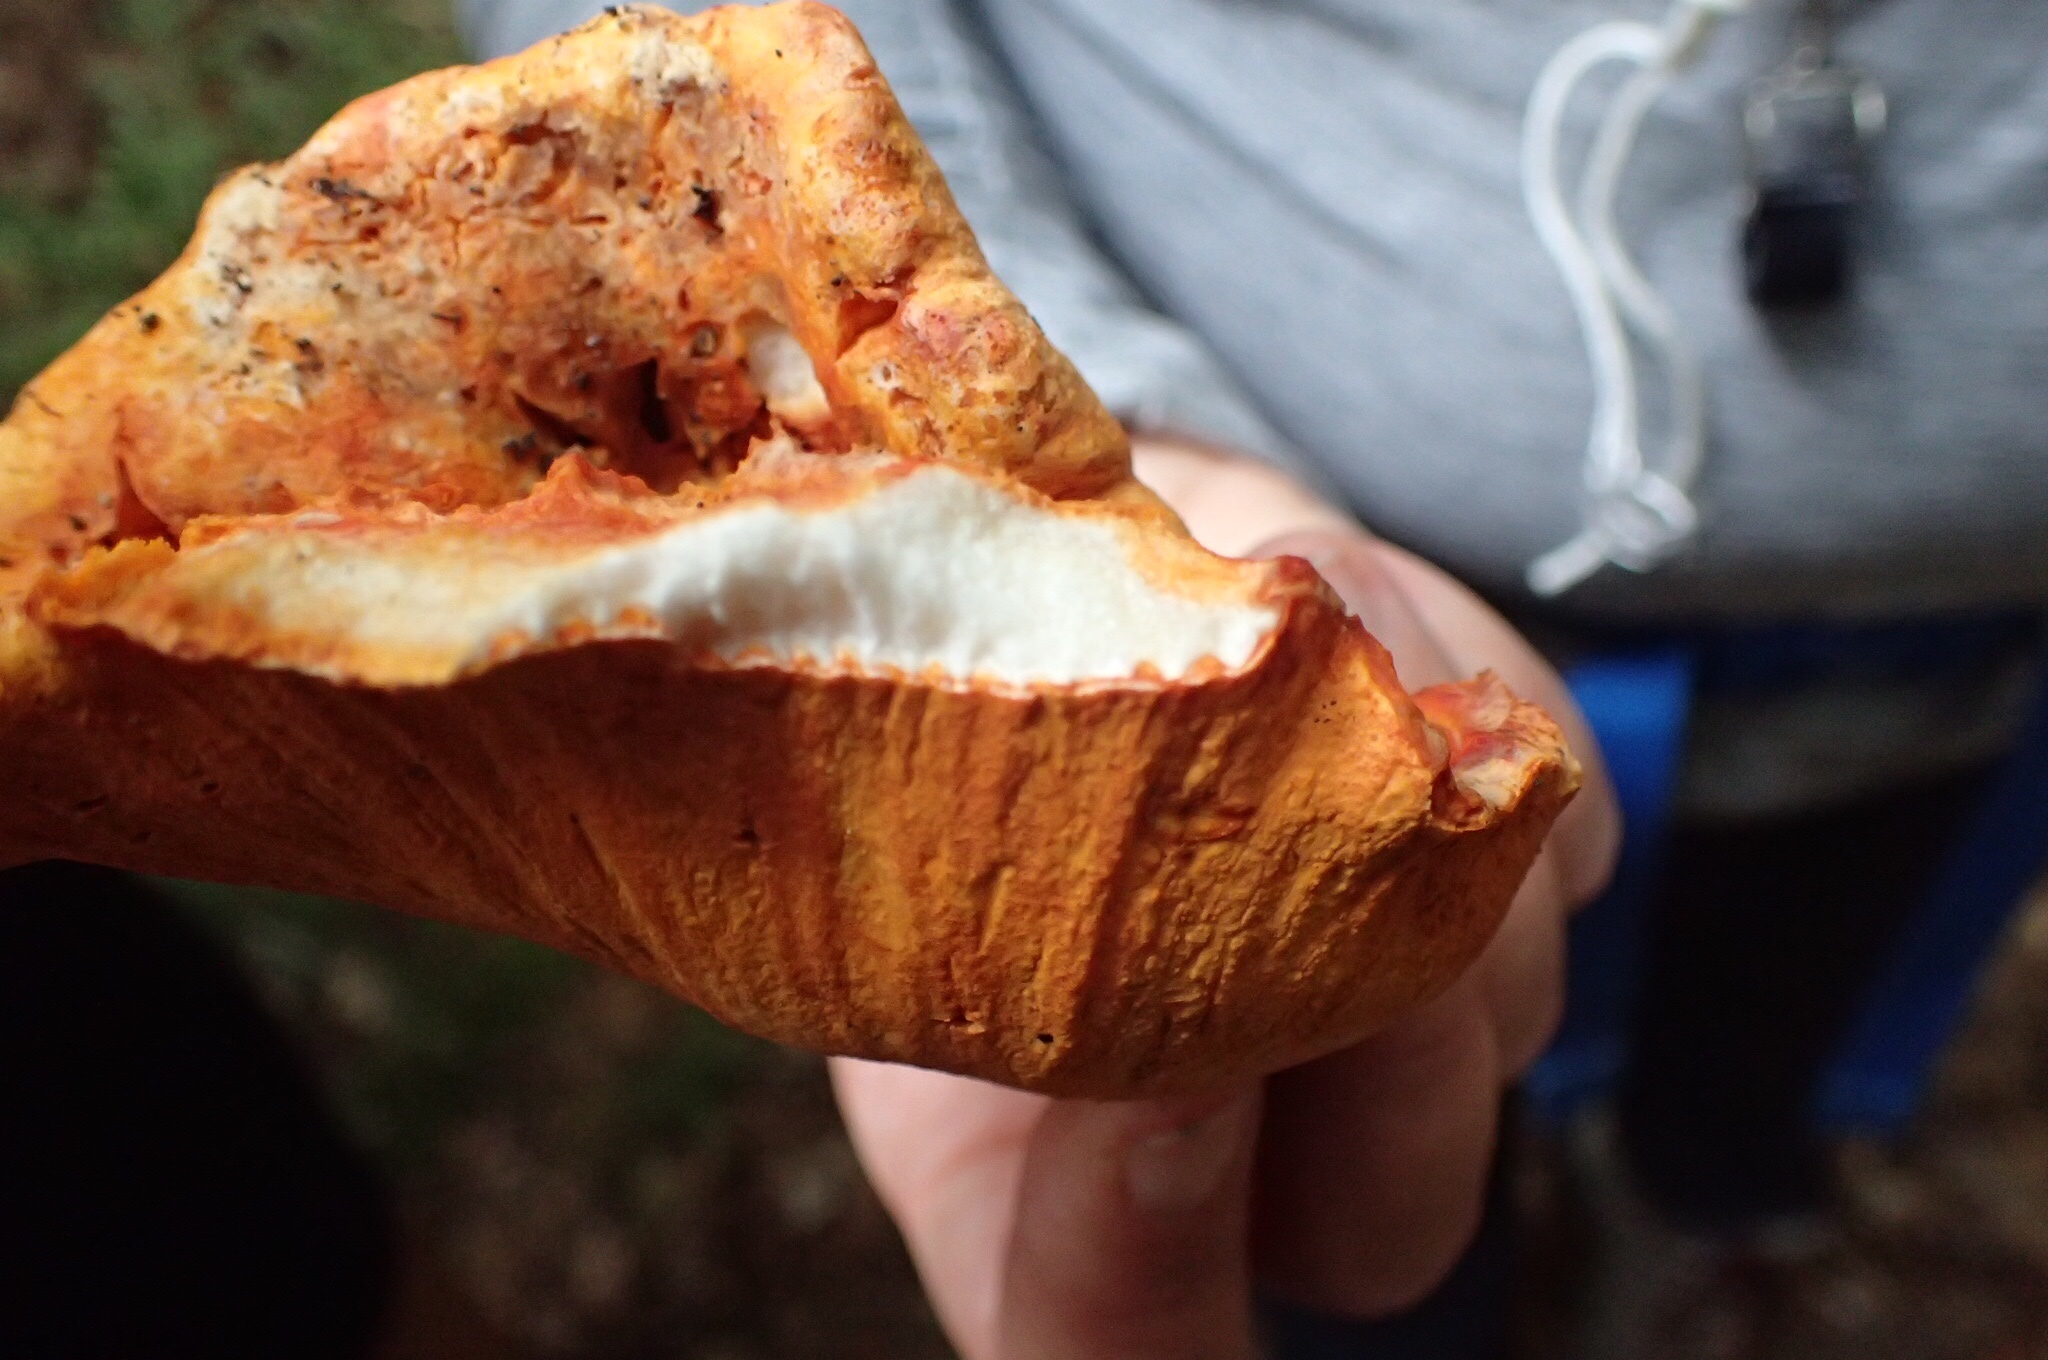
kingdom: Fungi
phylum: Ascomycota
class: Sordariomycetes
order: Hypocreales
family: Hypocreaceae
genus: Hypomyces
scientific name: Hypomyces lactifluorum
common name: Lobster mushroom
